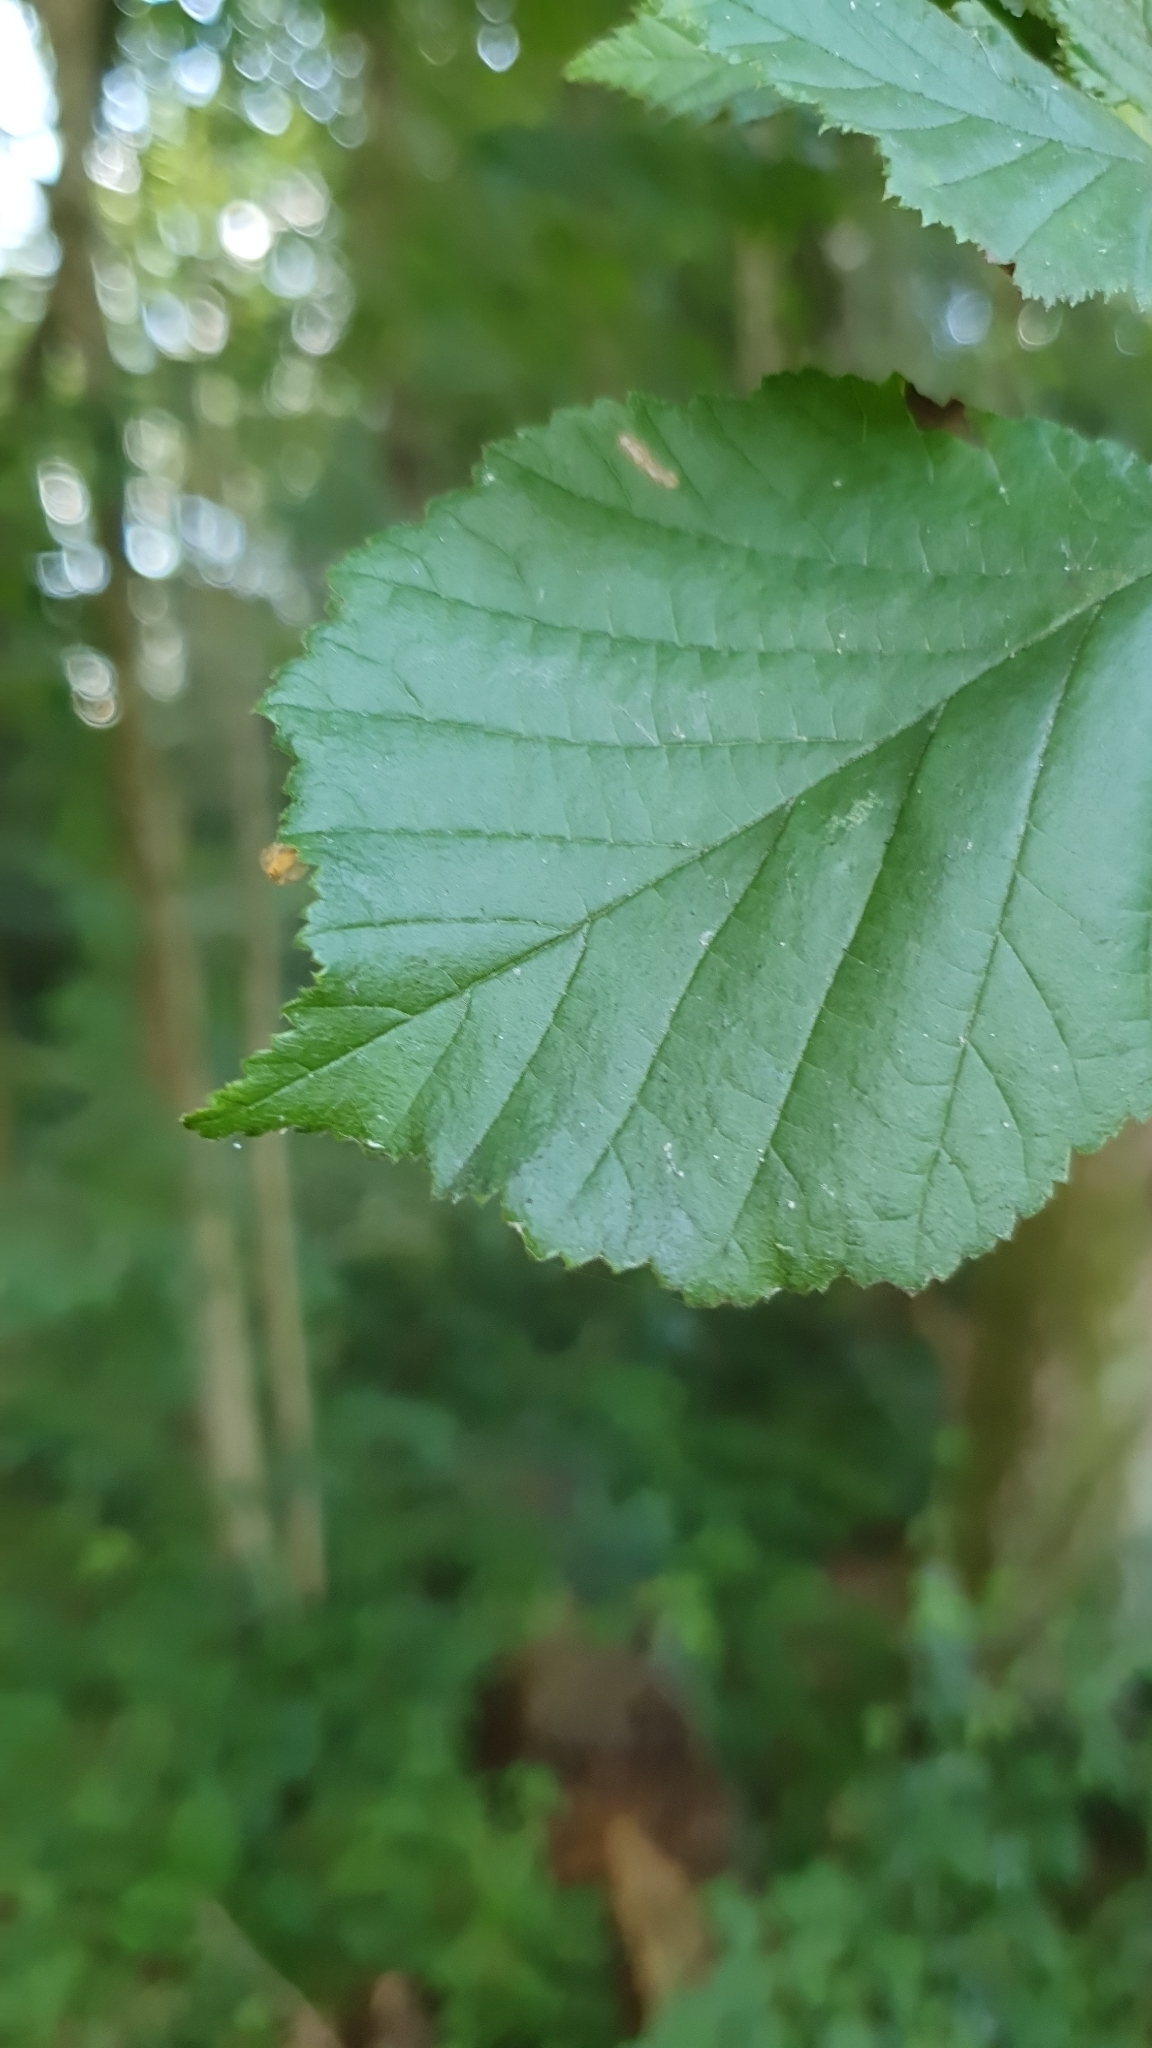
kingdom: Plantae
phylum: Tracheophyta
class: Magnoliopsida
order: Fagales
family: Betulaceae
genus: Corylus
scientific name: Corylus avellana
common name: European hazel
